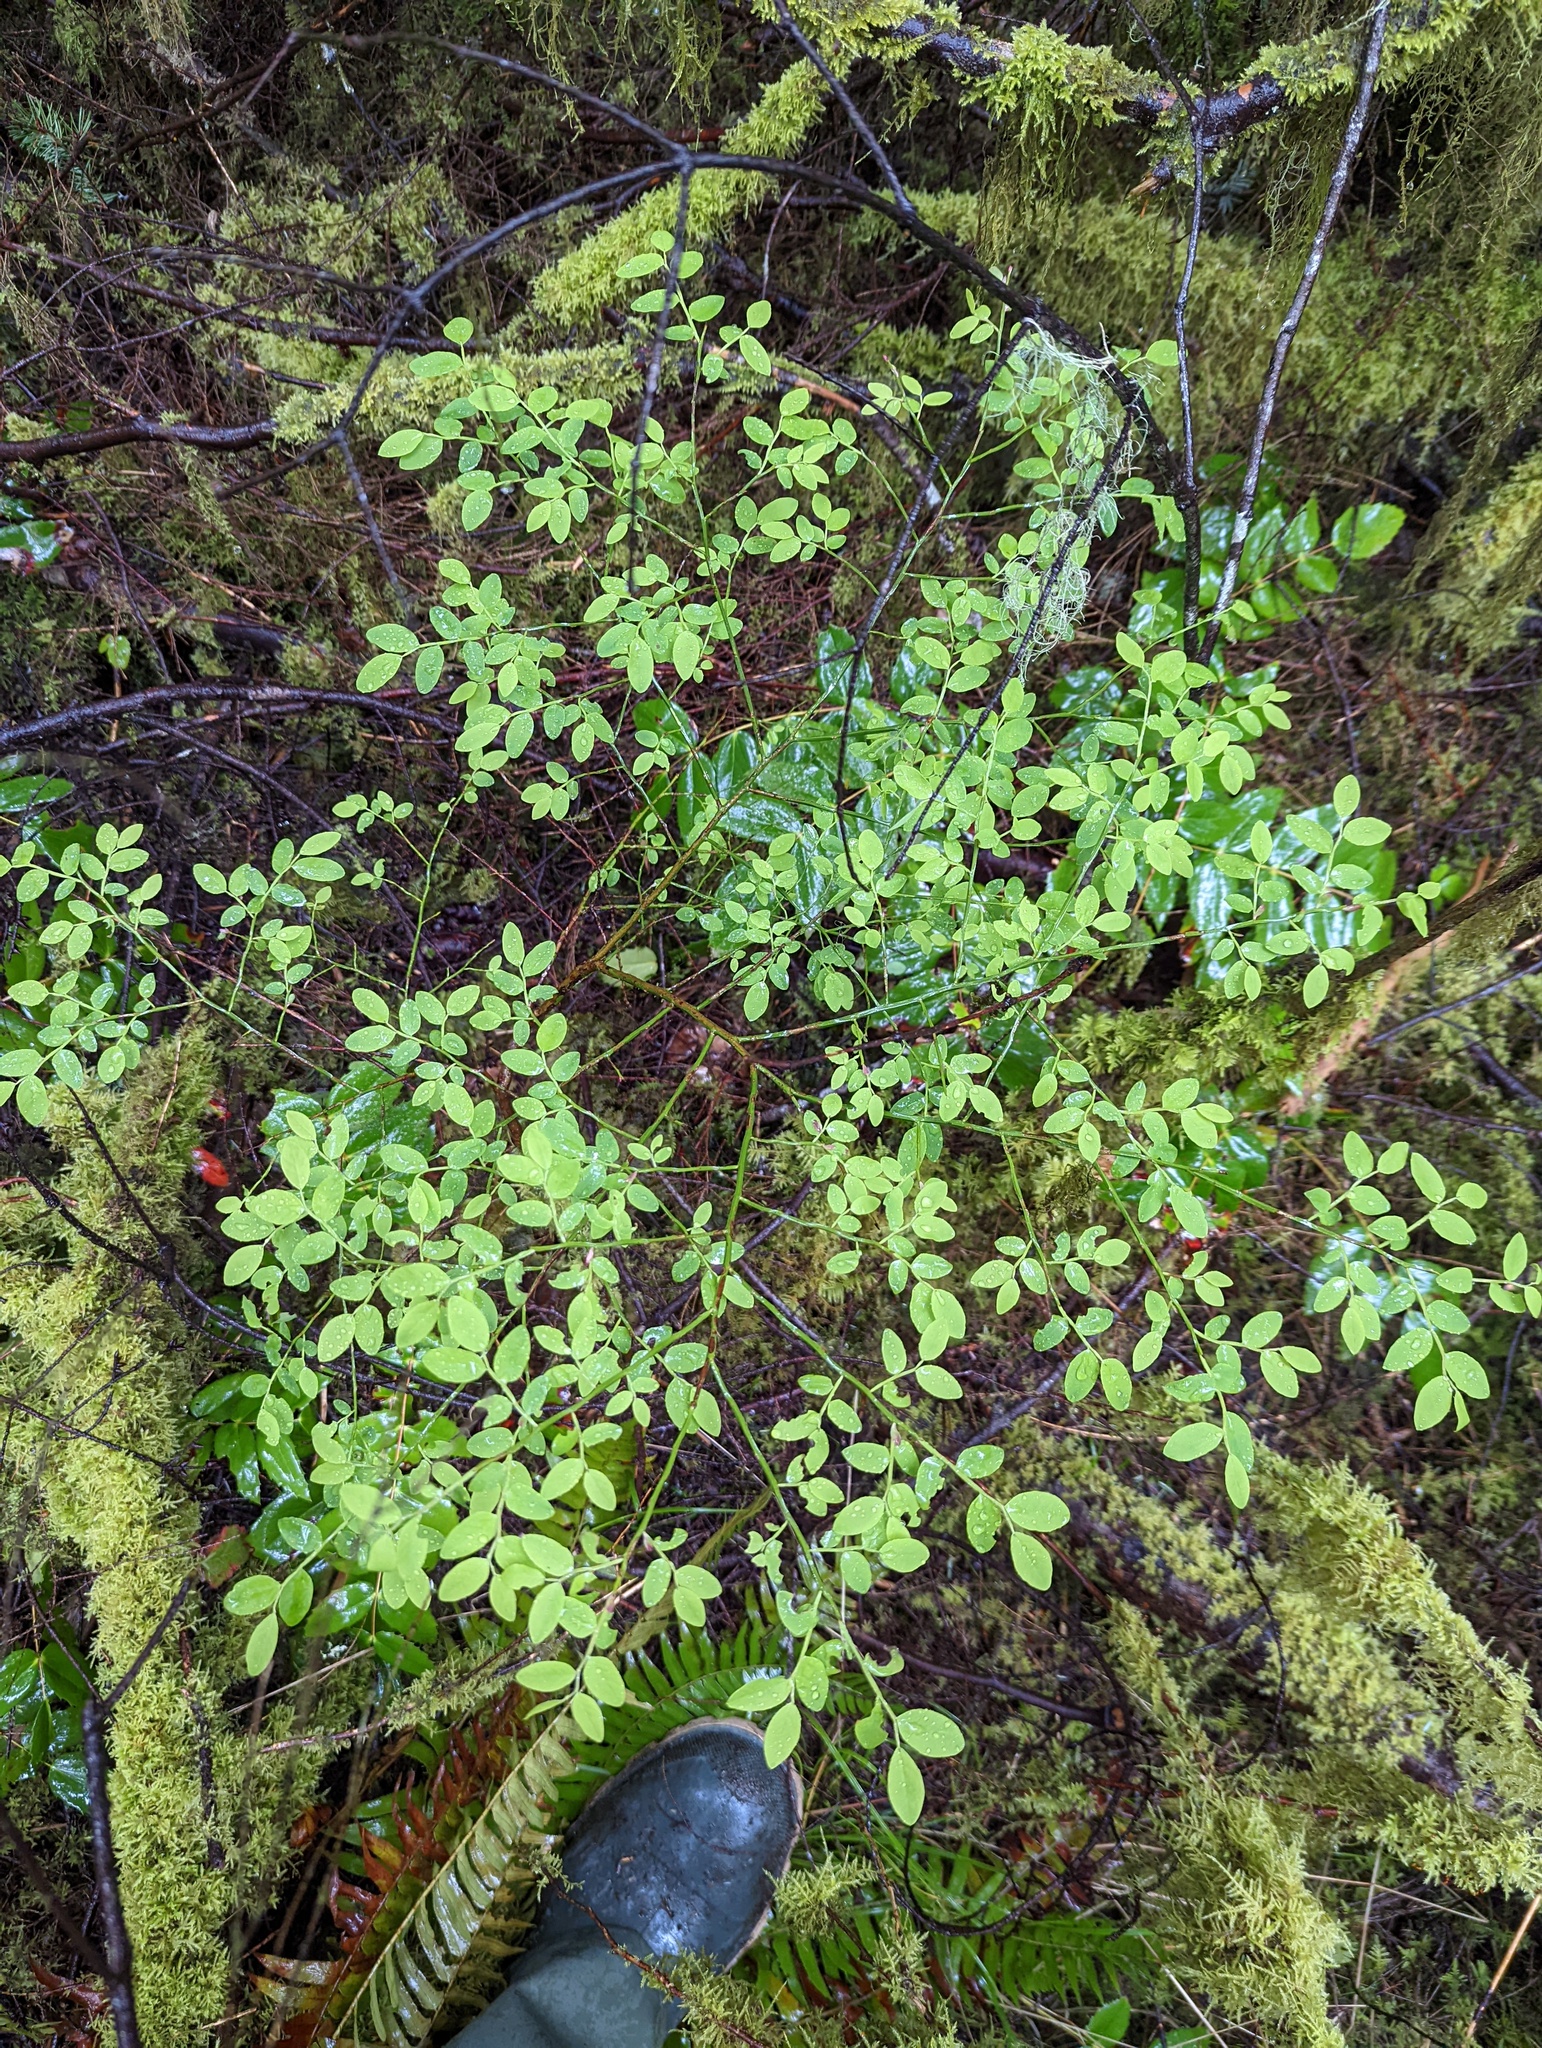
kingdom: Plantae
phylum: Tracheophyta
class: Magnoliopsida
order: Ericales
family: Ericaceae
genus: Vaccinium
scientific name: Vaccinium parvifolium
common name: Red-huckleberry
